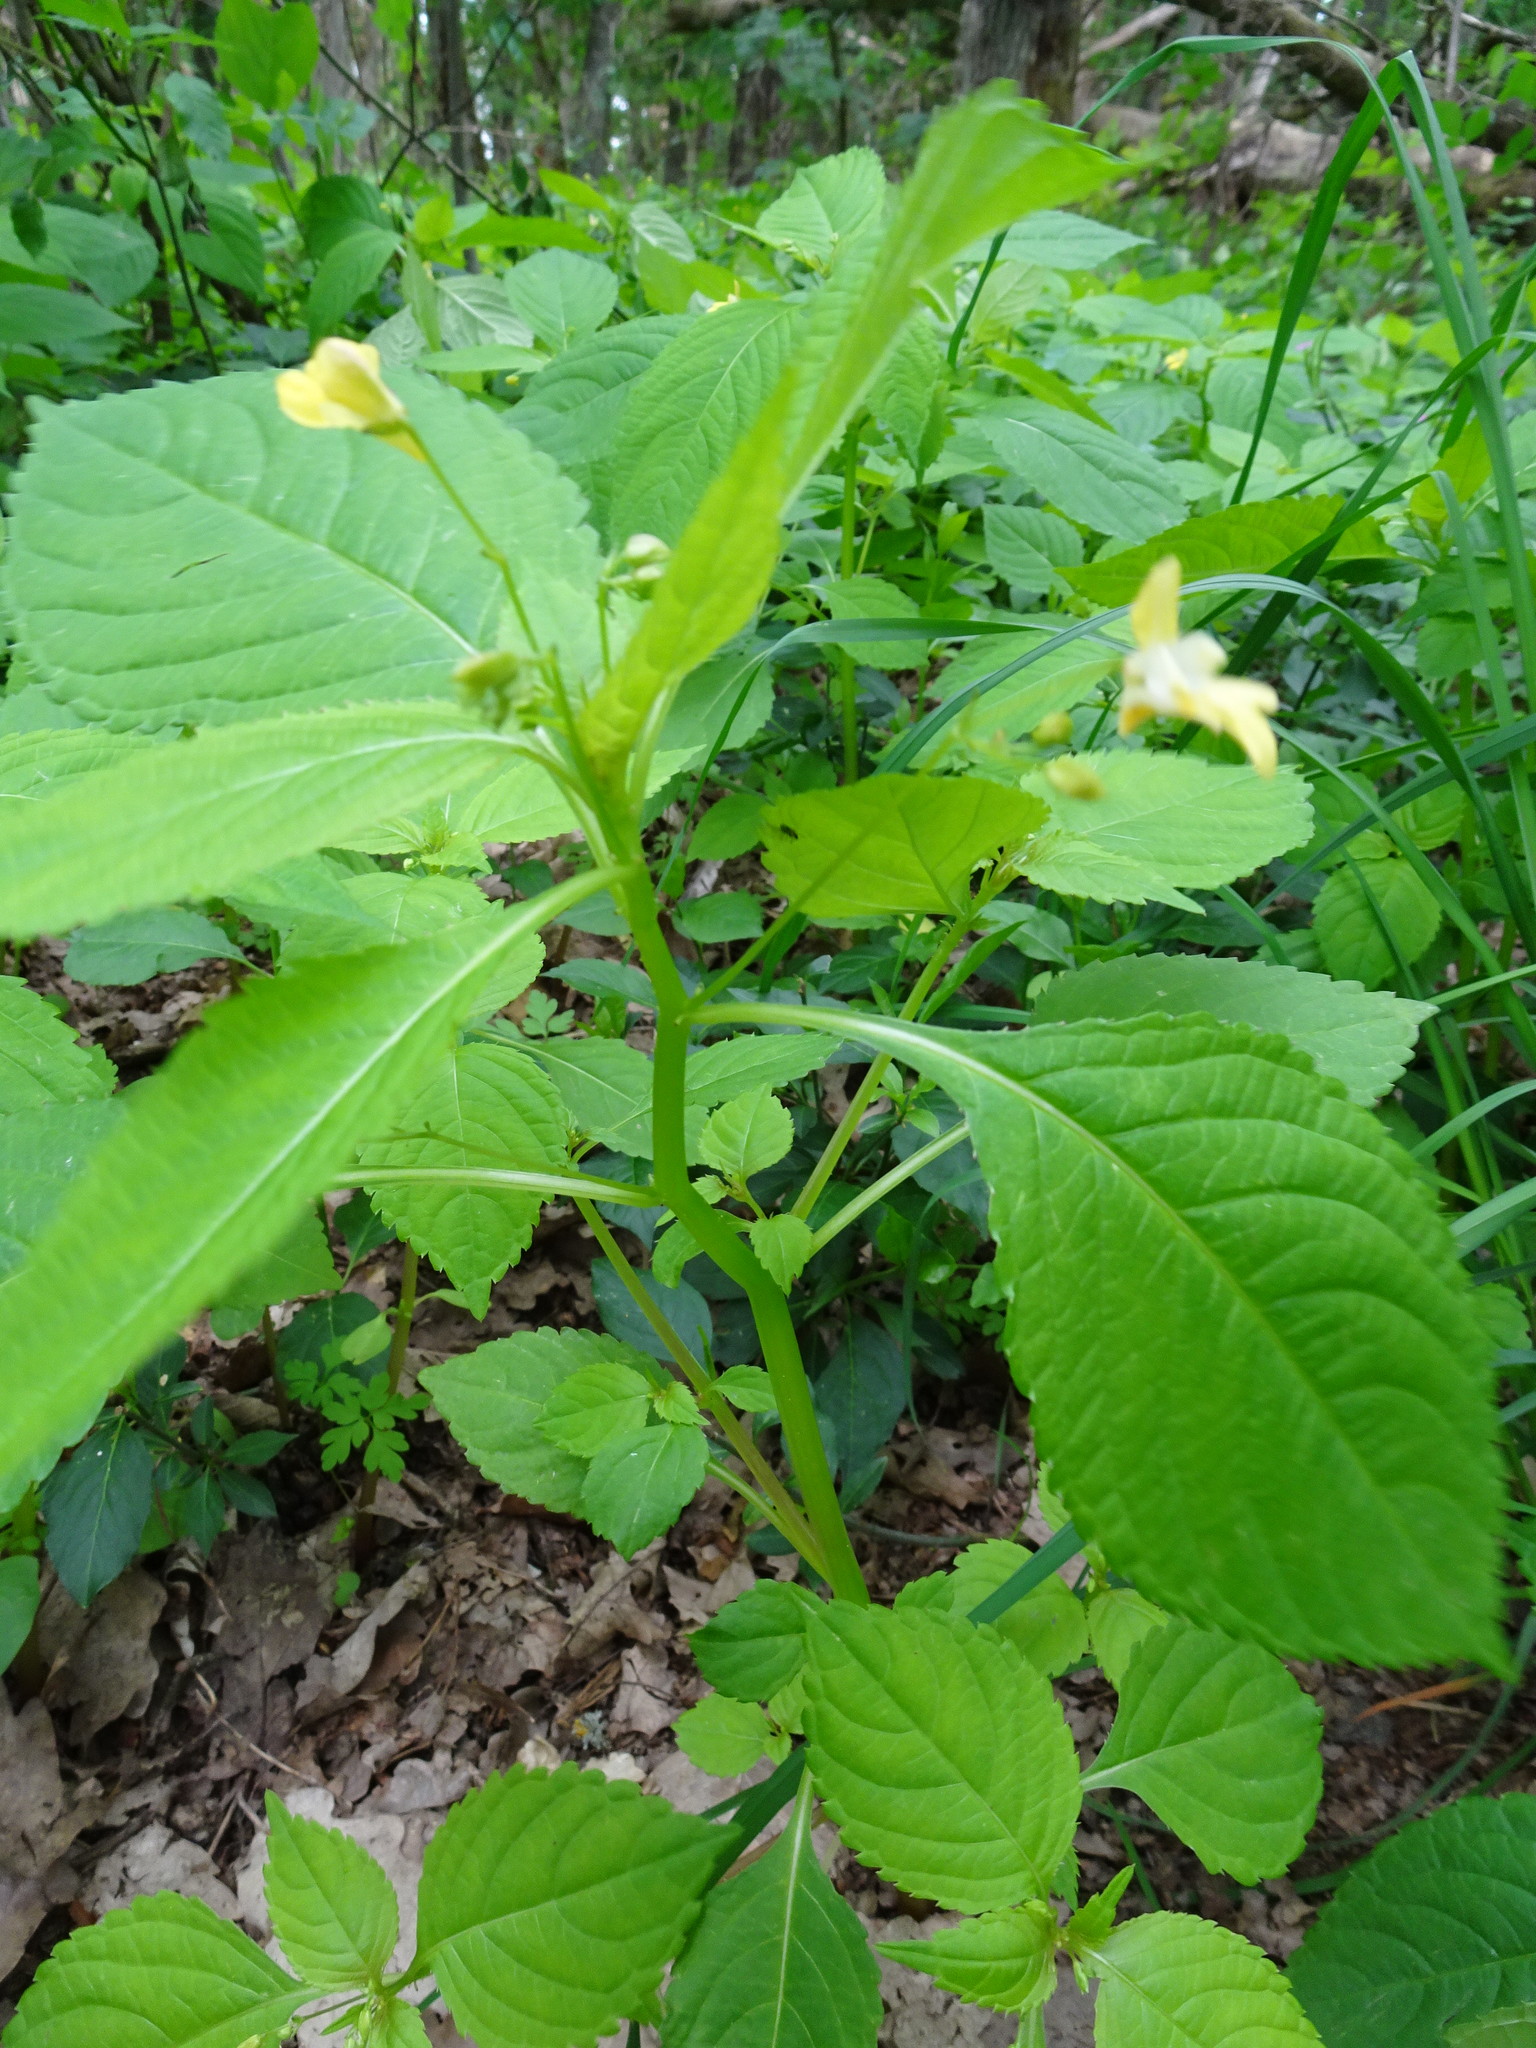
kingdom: Plantae
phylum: Tracheophyta
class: Magnoliopsida
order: Ericales
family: Balsaminaceae
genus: Impatiens
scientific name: Impatiens parviflora
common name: Small balsam
